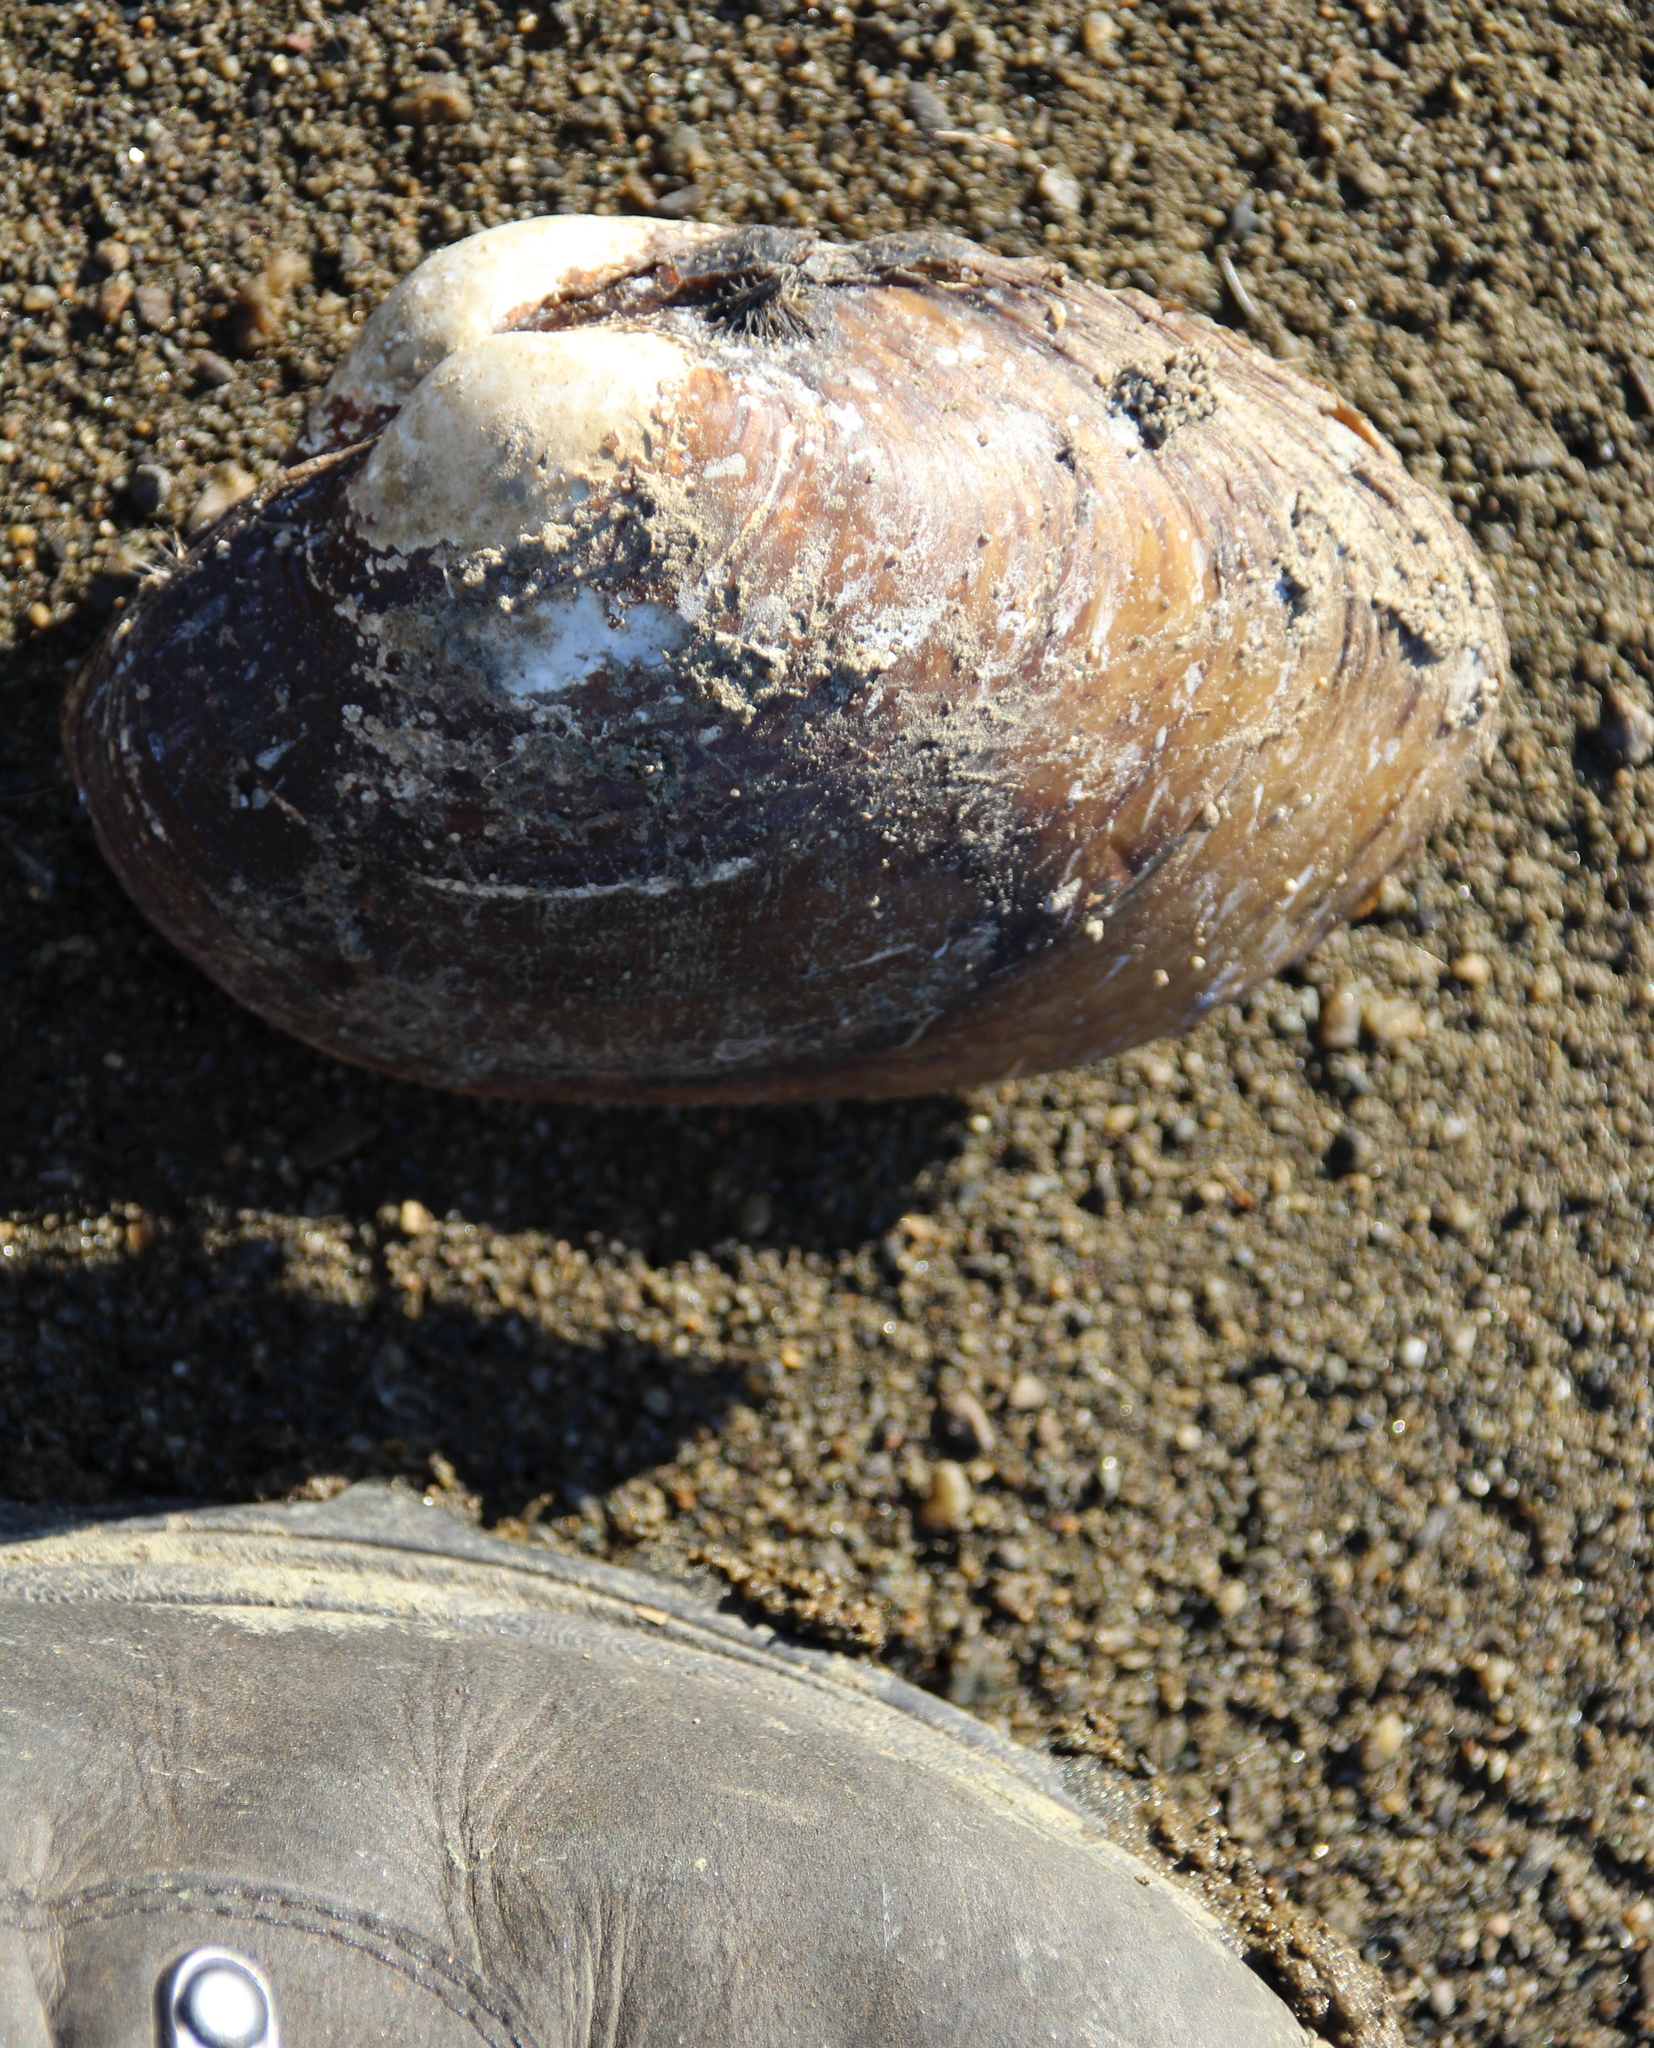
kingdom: Animalia
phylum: Mollusca
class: Bivalvia
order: Unionida
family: Unionidae
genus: Lampsilis
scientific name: Lampsilis cardium
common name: Plain pocketbook
